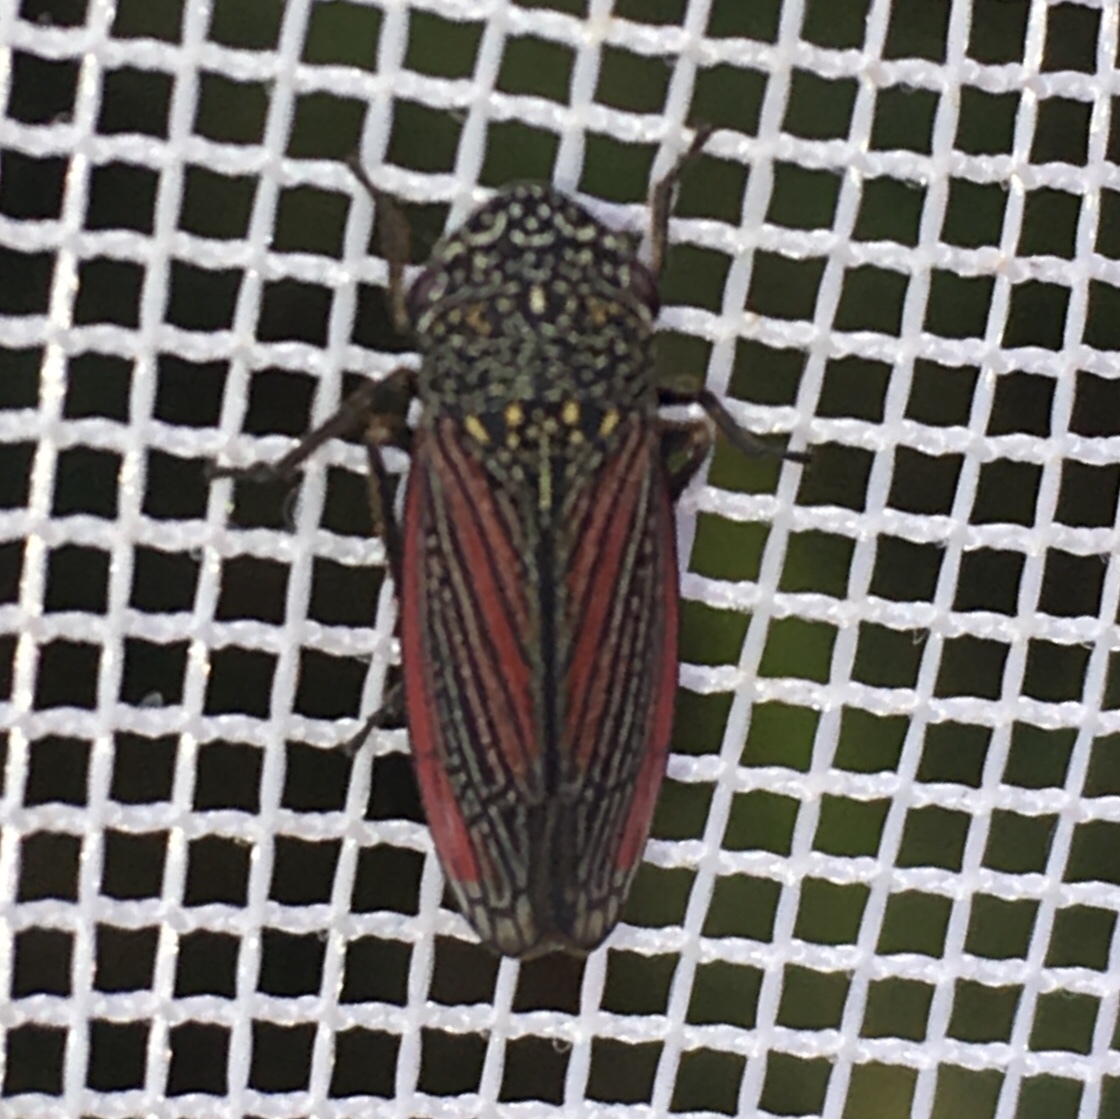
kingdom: Animalia
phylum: Arthropoda
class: Insecta
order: Hemiptera
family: Cicadellidae
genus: Cuerna
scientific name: Cuerna striata
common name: Striped leafhopper
